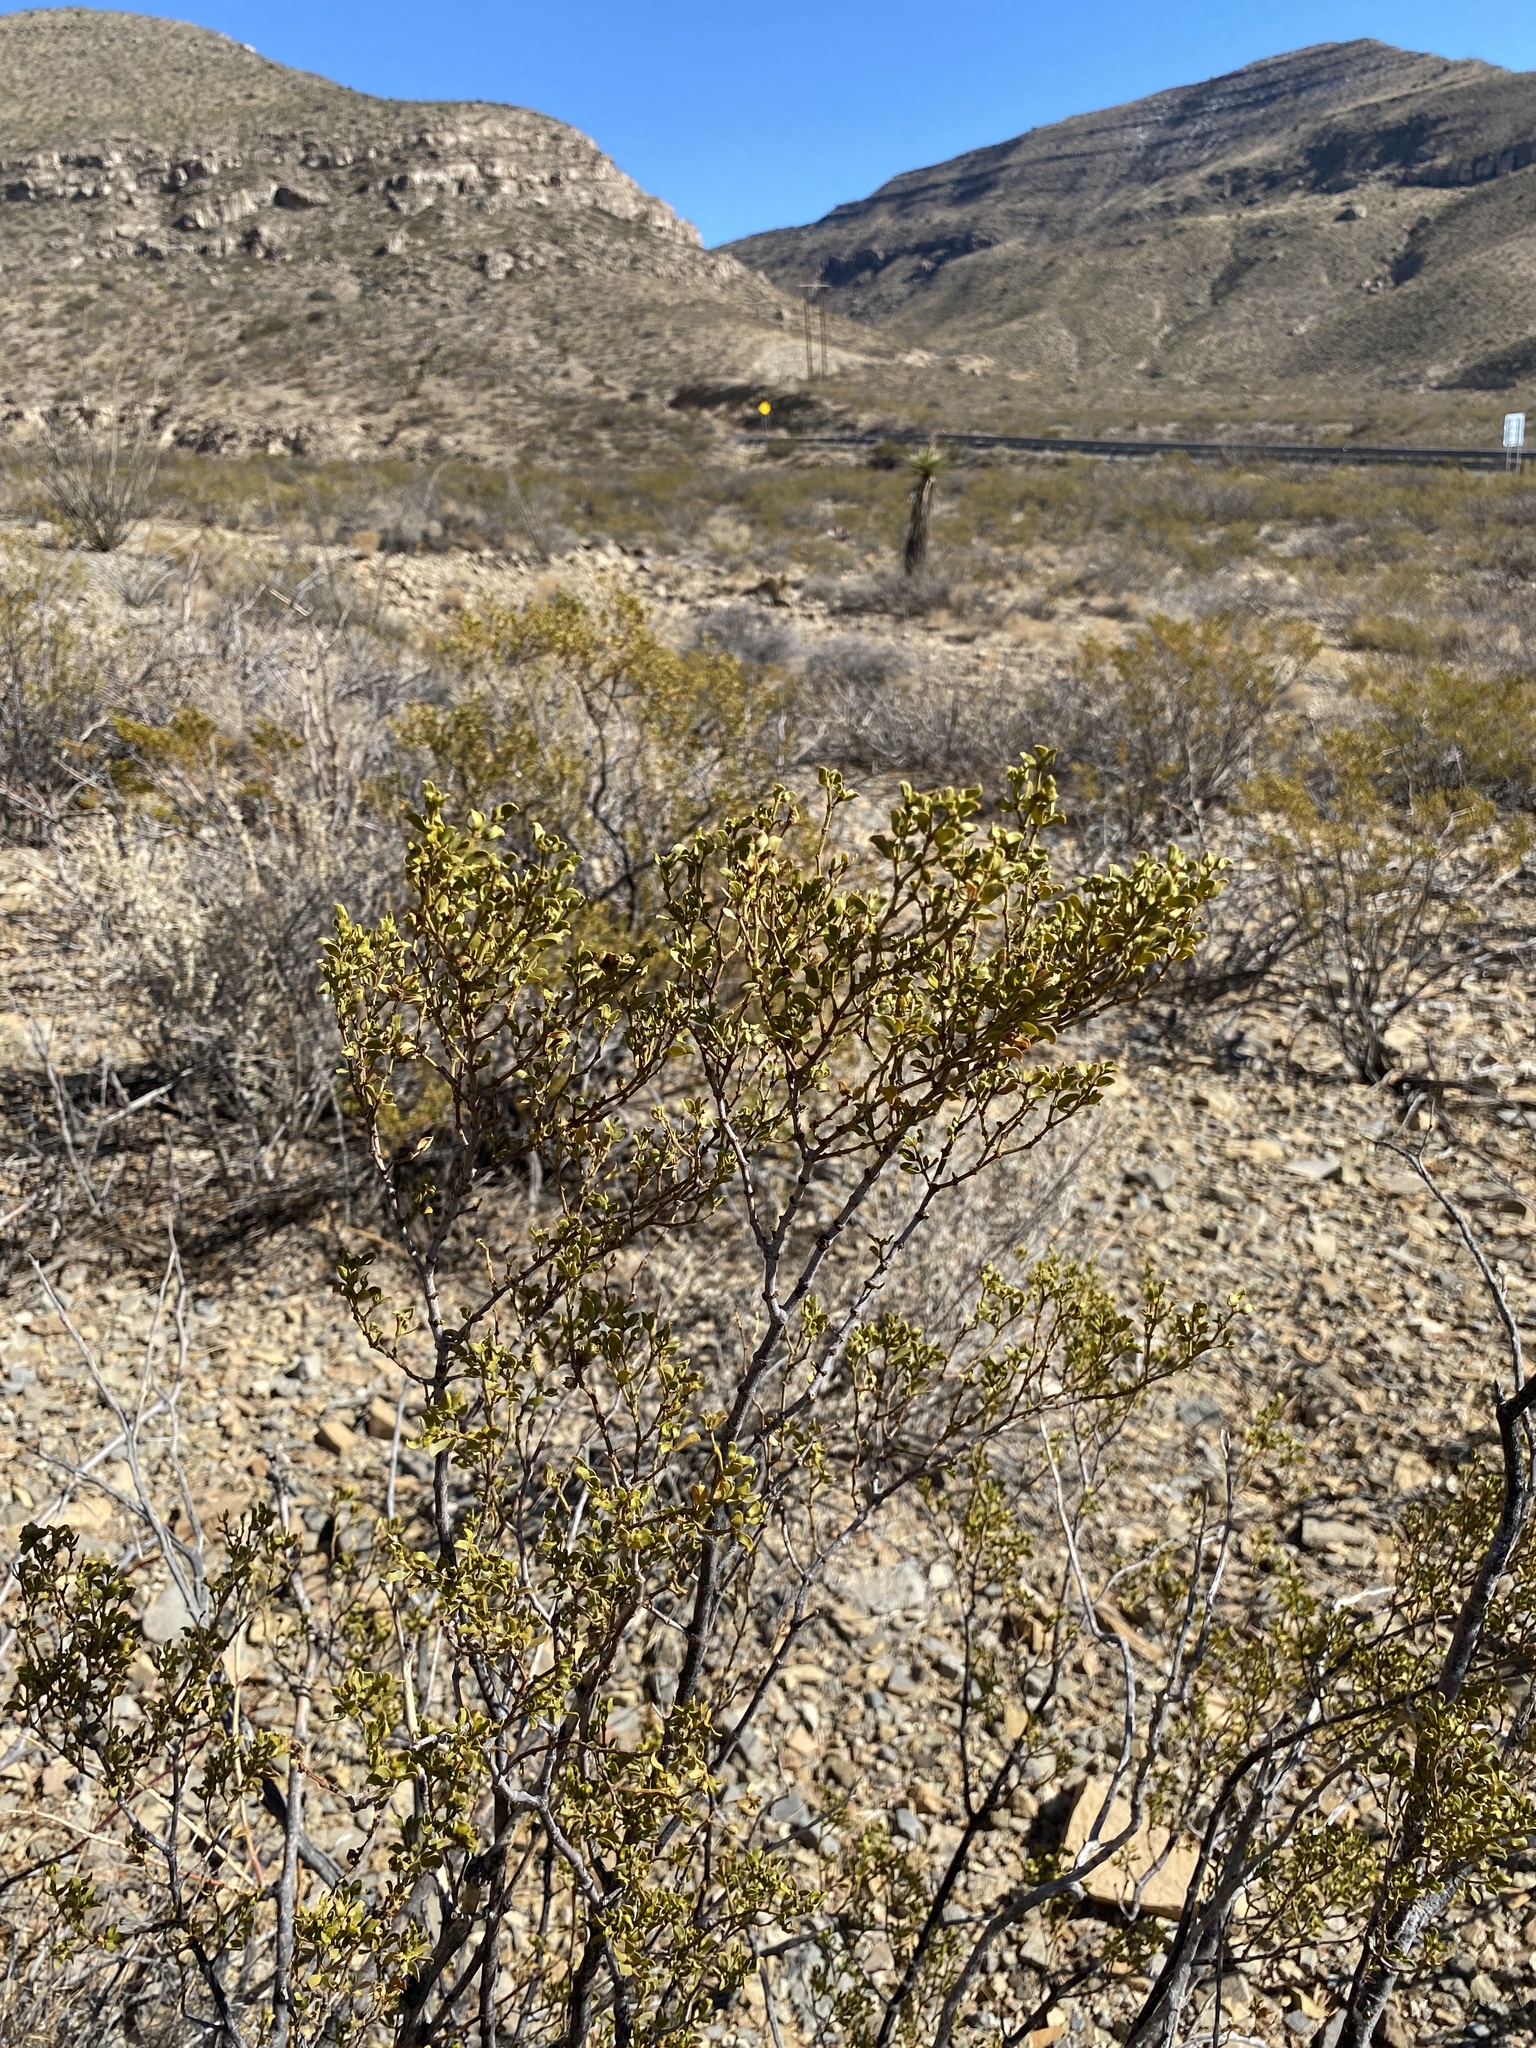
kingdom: Plantae
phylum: Tracheophyta
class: Magnoliopsida
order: Zygophyllales
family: Zygophyllaceae
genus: Larrea
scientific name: Larrea tridentata
